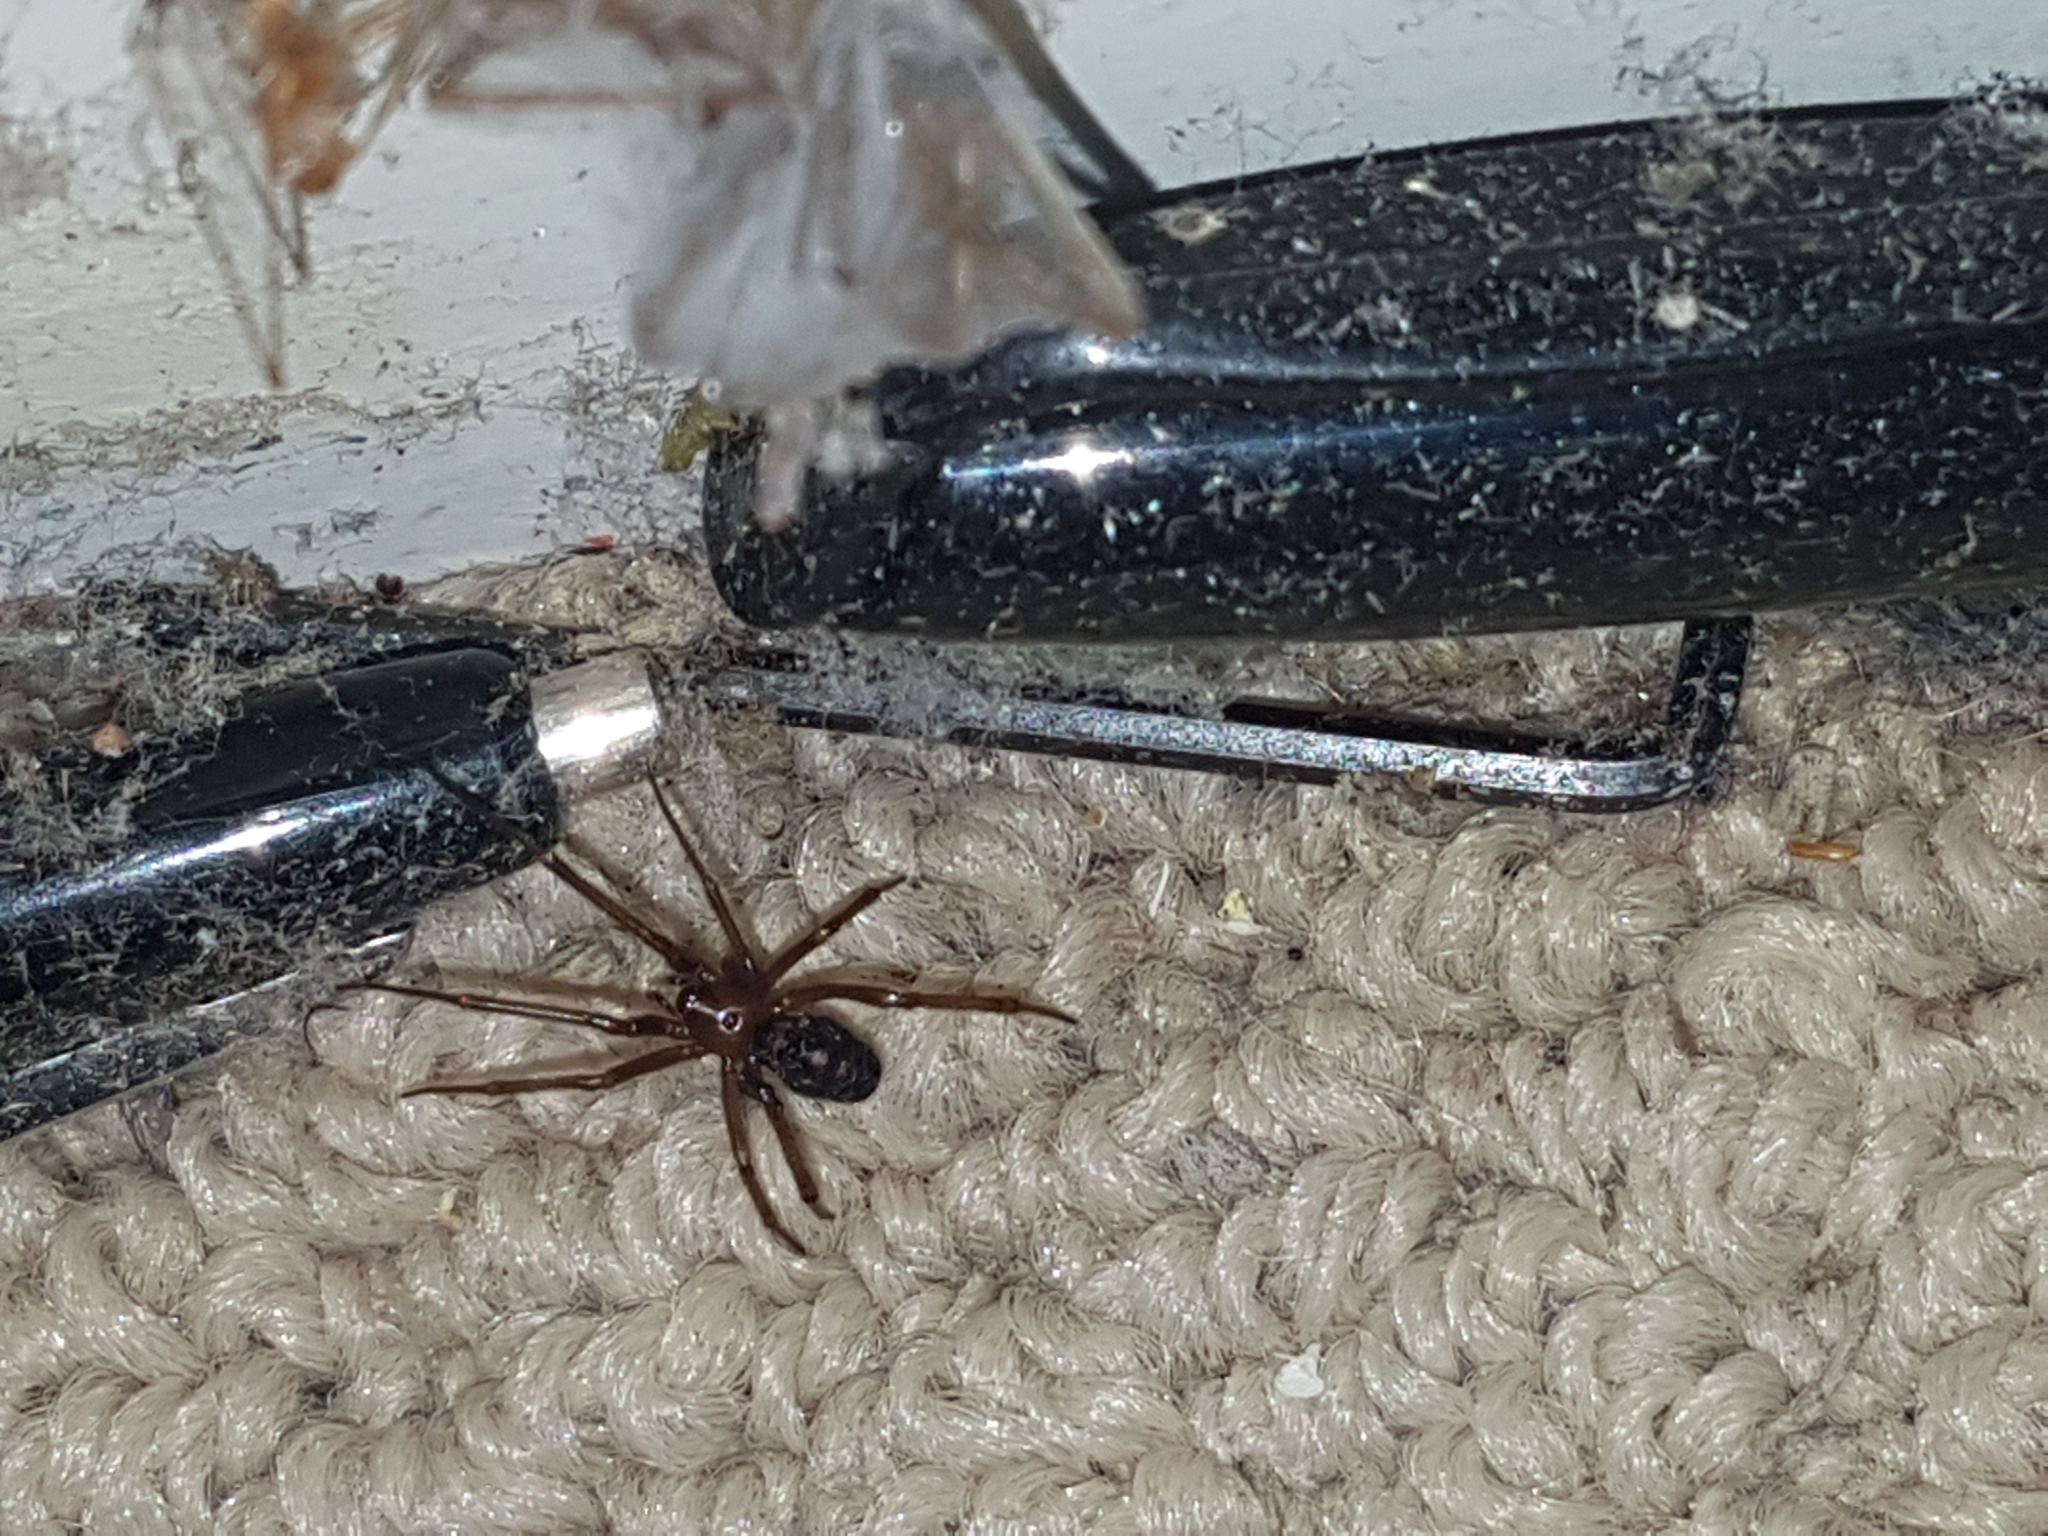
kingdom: Animalia
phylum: Arthropoda
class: Arachnida
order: Araneae
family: Theridiidae
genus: Steatoda
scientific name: Steatoda grossa
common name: False black widow
